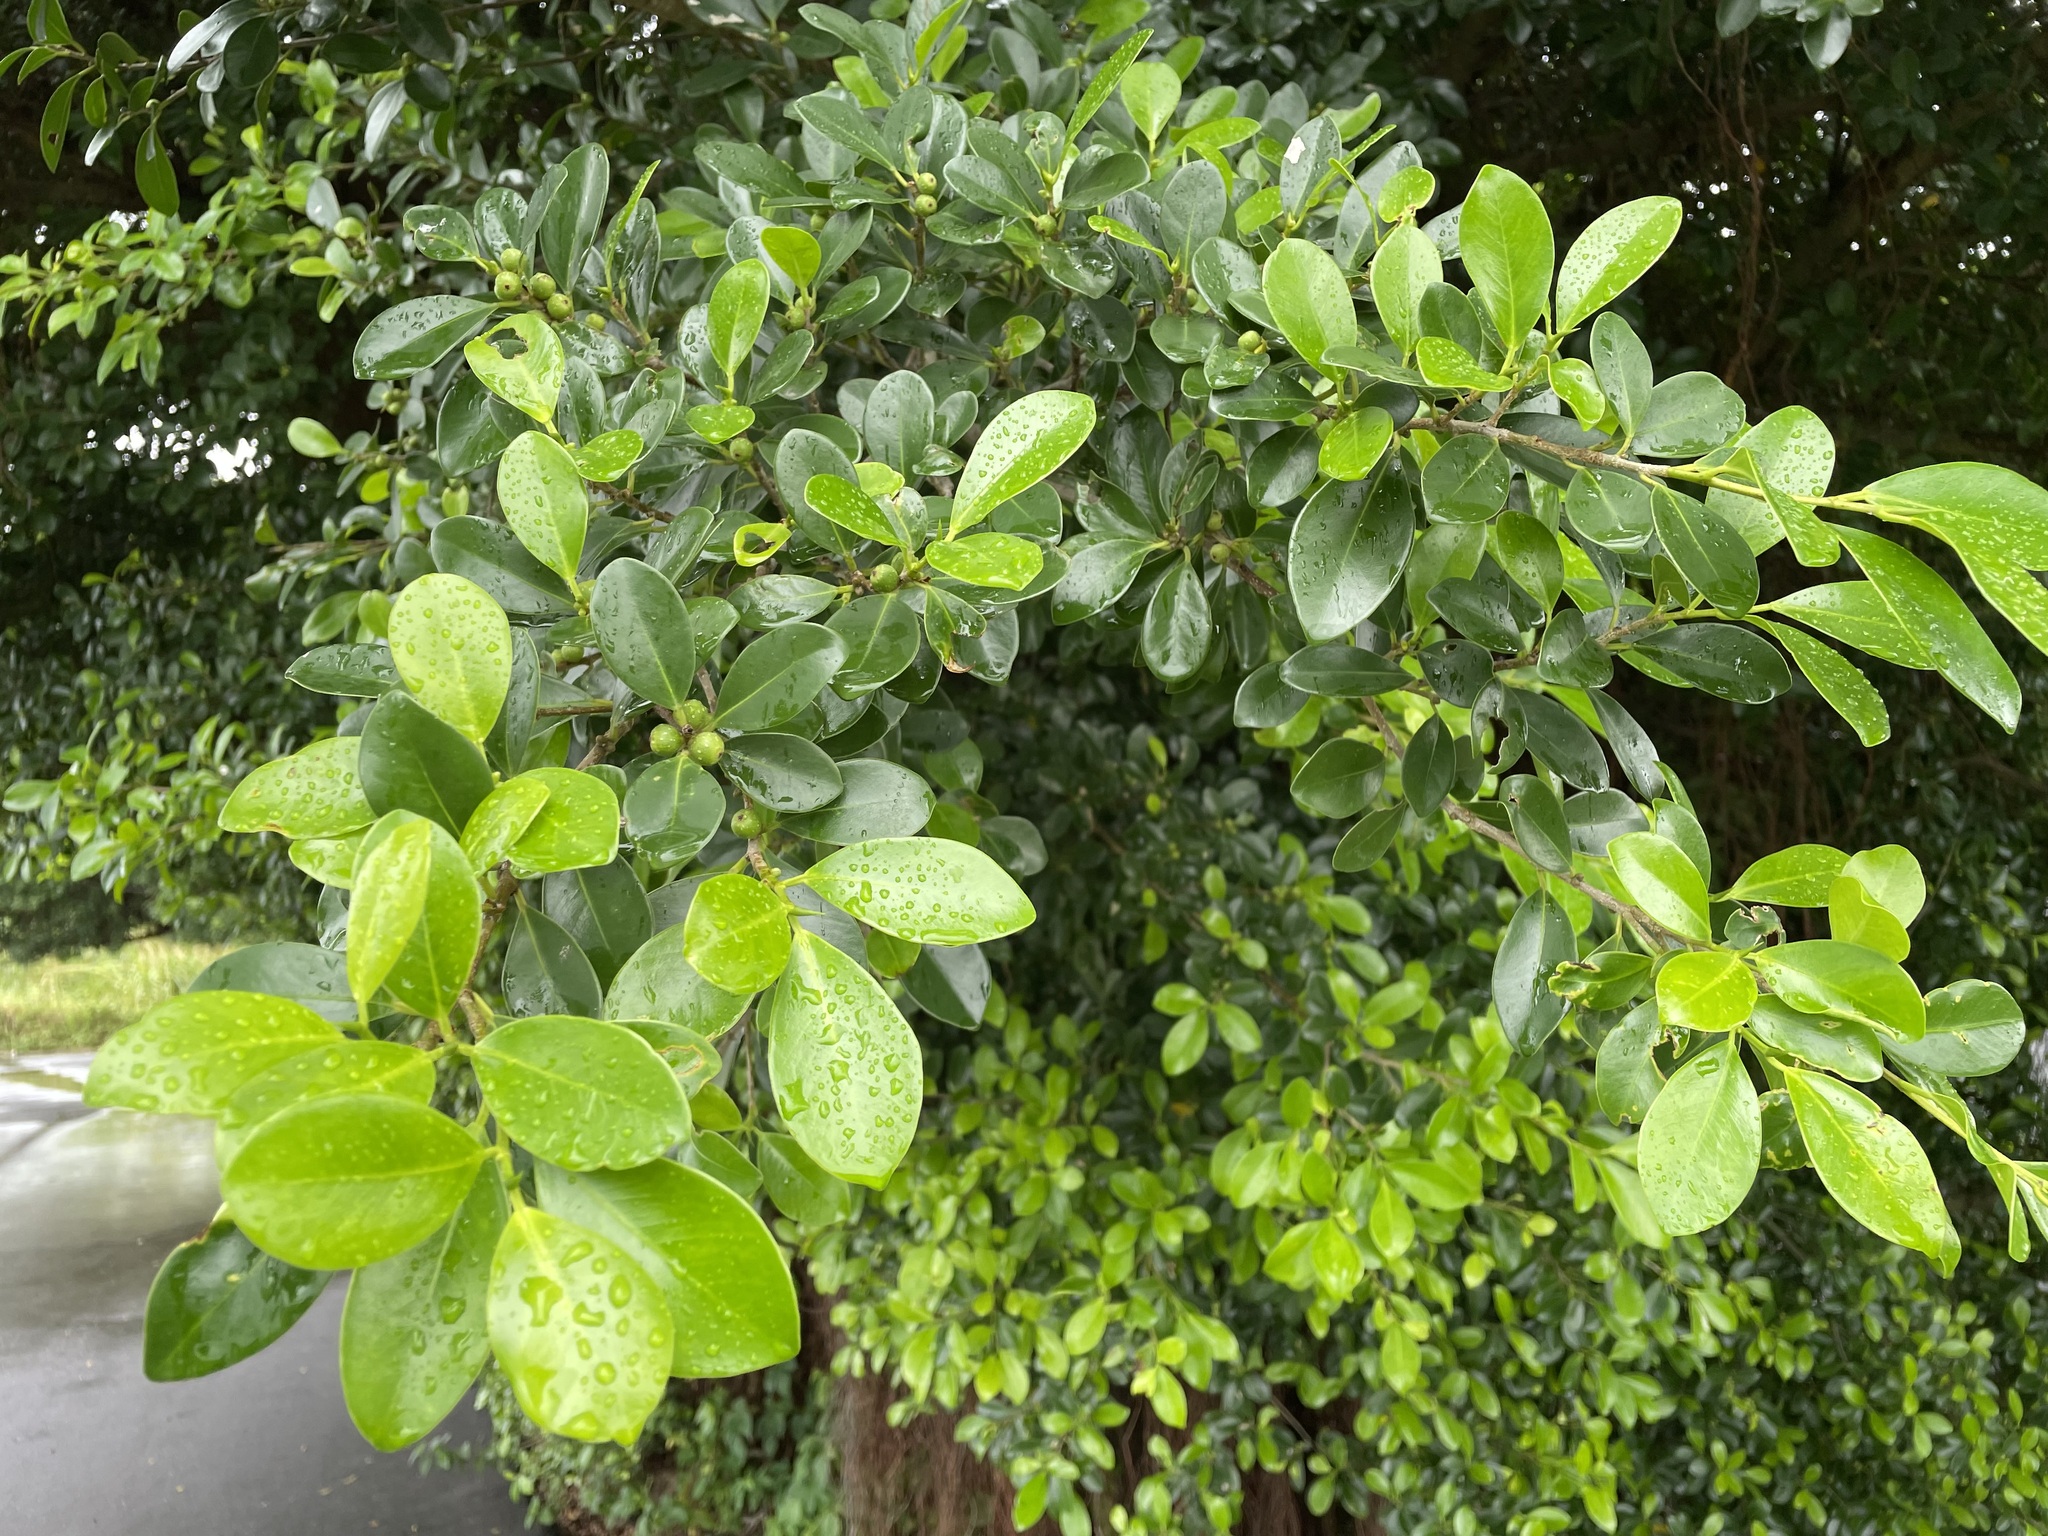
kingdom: Plantae
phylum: Tracheophyta
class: Magnoliopsida
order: Rosales
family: Moraceae
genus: Ficus
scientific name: Ficus microcarpa
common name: Chinese banyan
